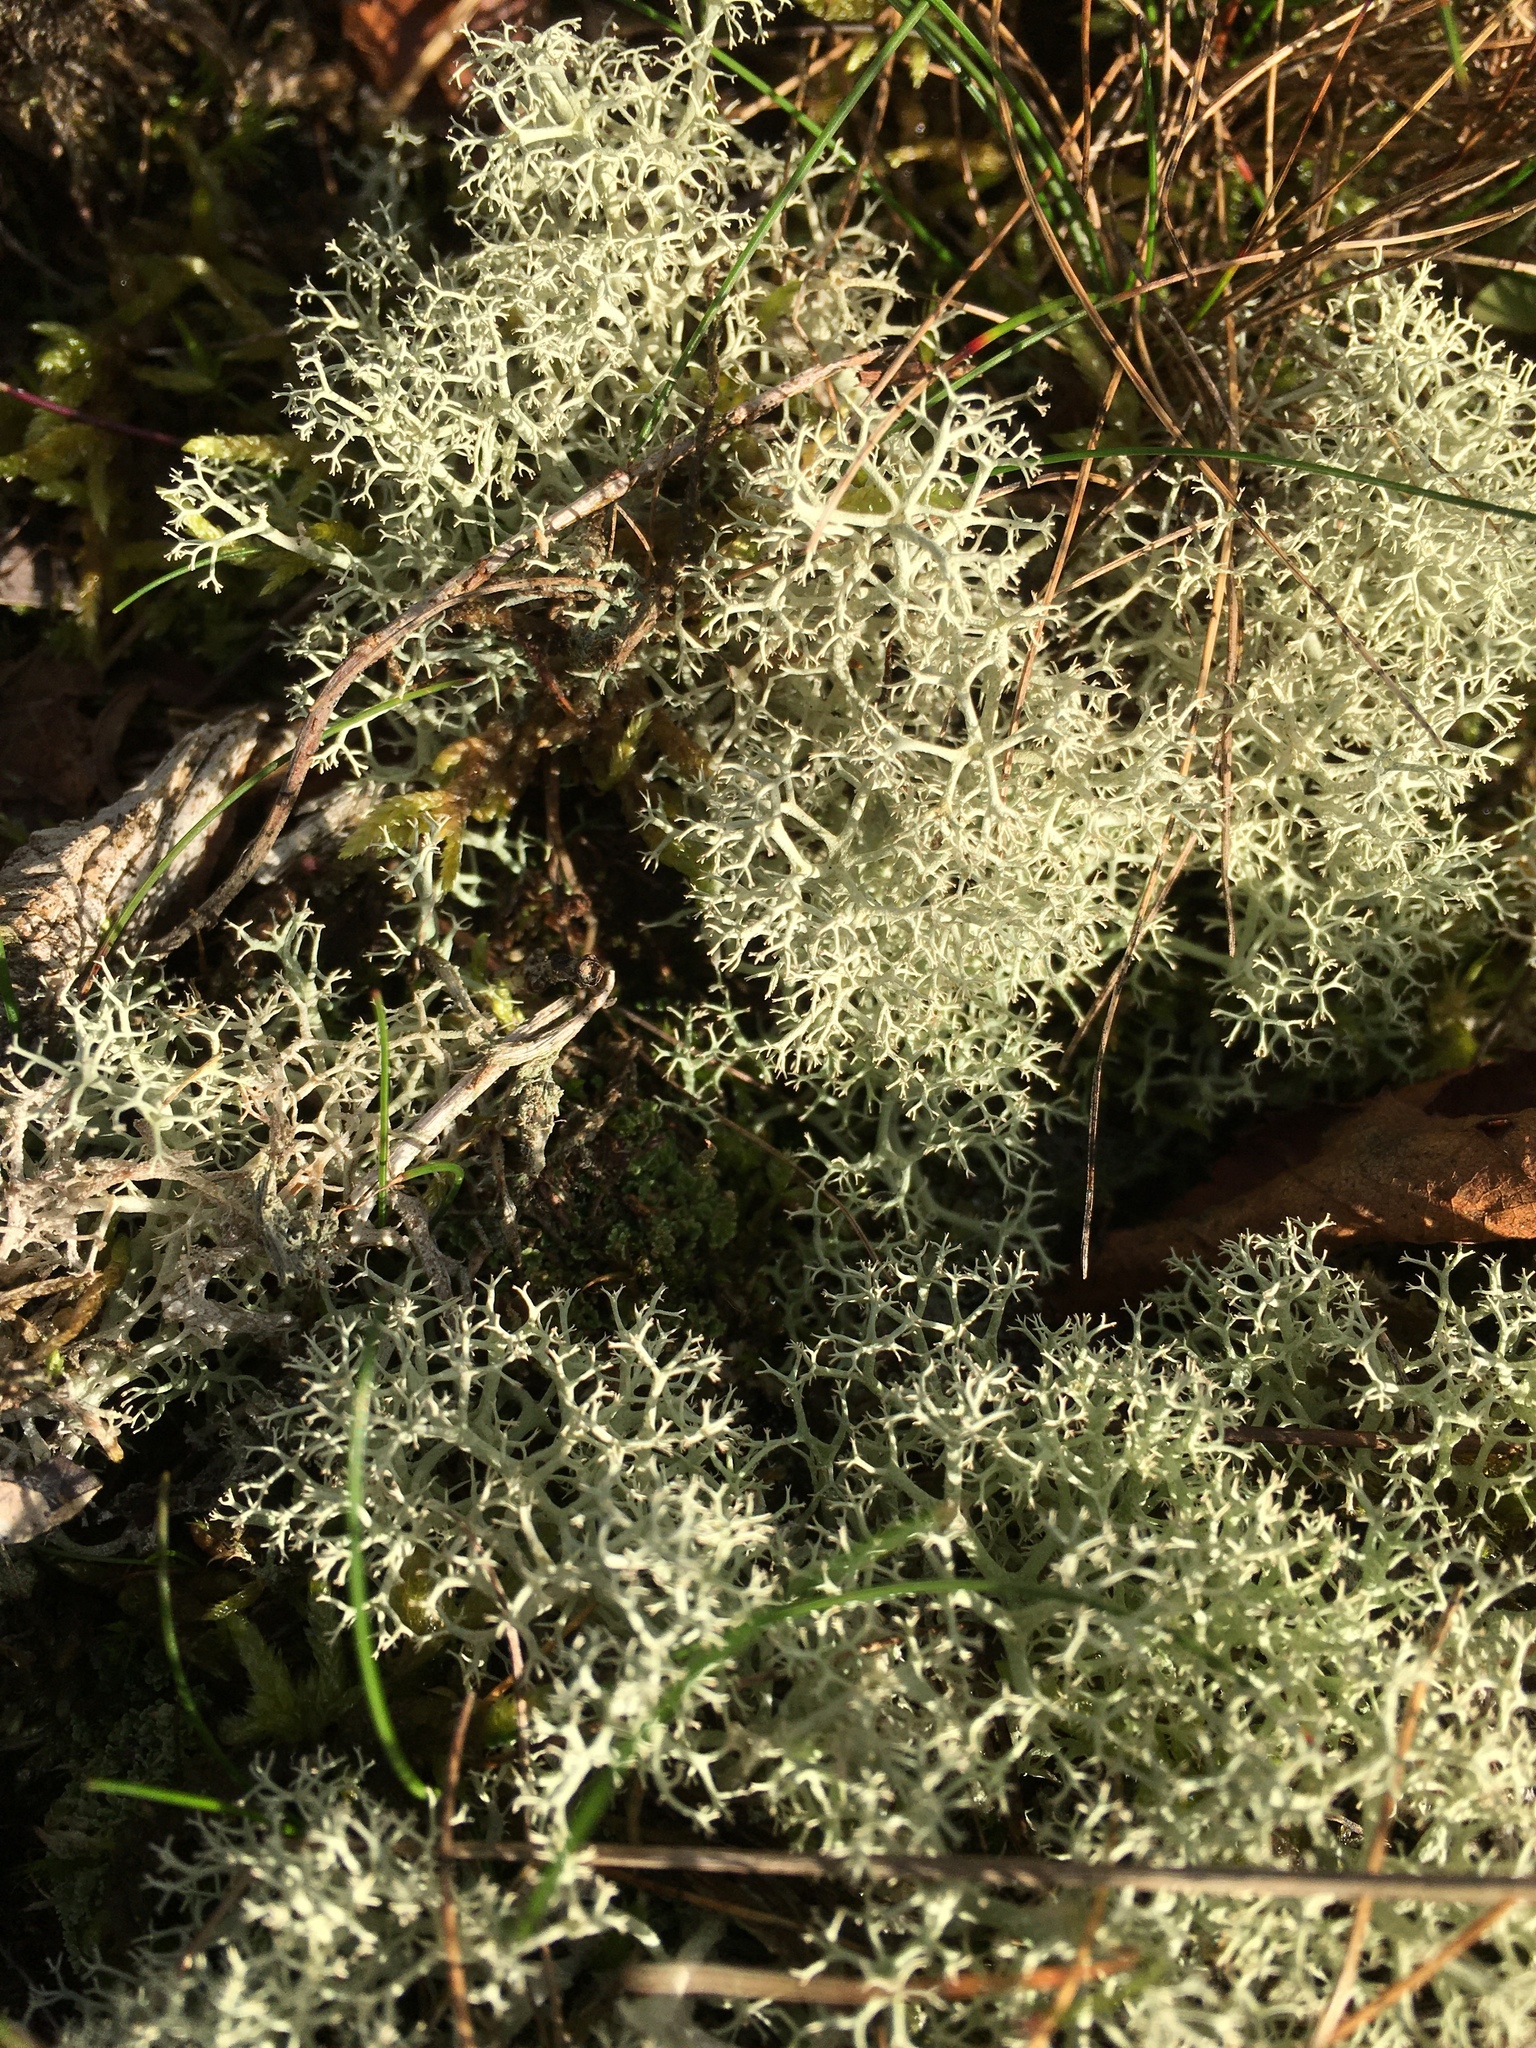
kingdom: Fungi
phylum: Ascomycota
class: Lecanoromycetes
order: Lecanorales
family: Cladoniaceae
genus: Cladonia
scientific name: Cladonia portentosa
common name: Reindeer lichen
